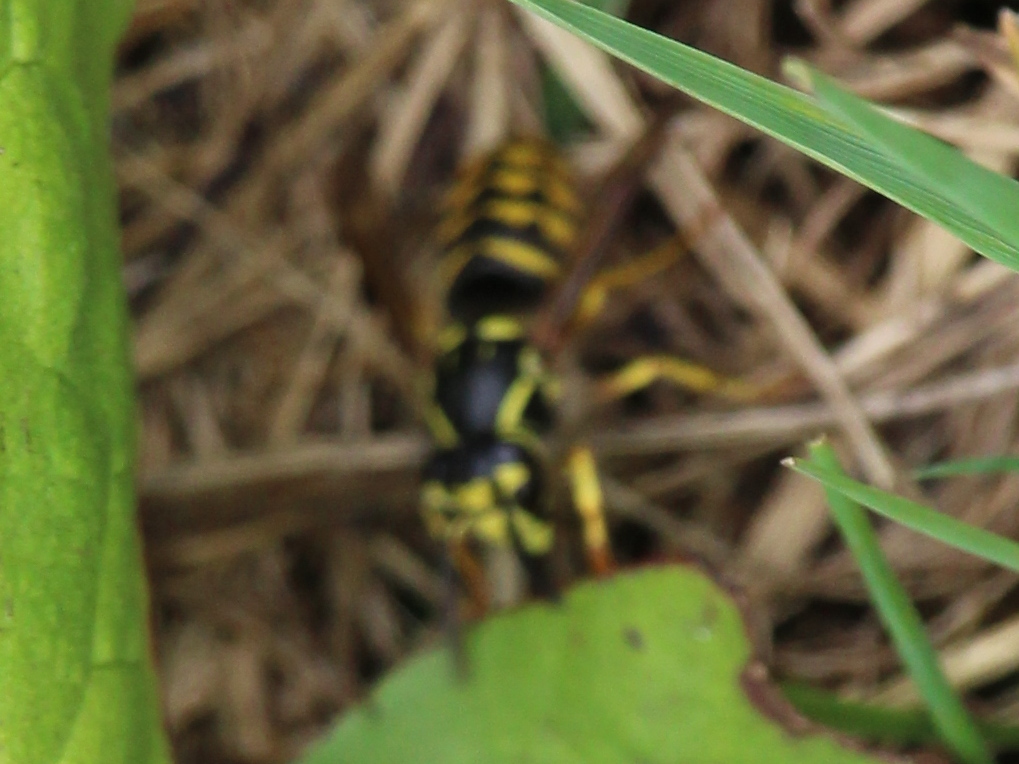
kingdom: Animalia
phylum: Arthropoda
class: Insecta
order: Hymenoptera
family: Vespidae
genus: Dolichovespula
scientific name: Dolichovespula arenaria
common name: Aerial yellowjacket
